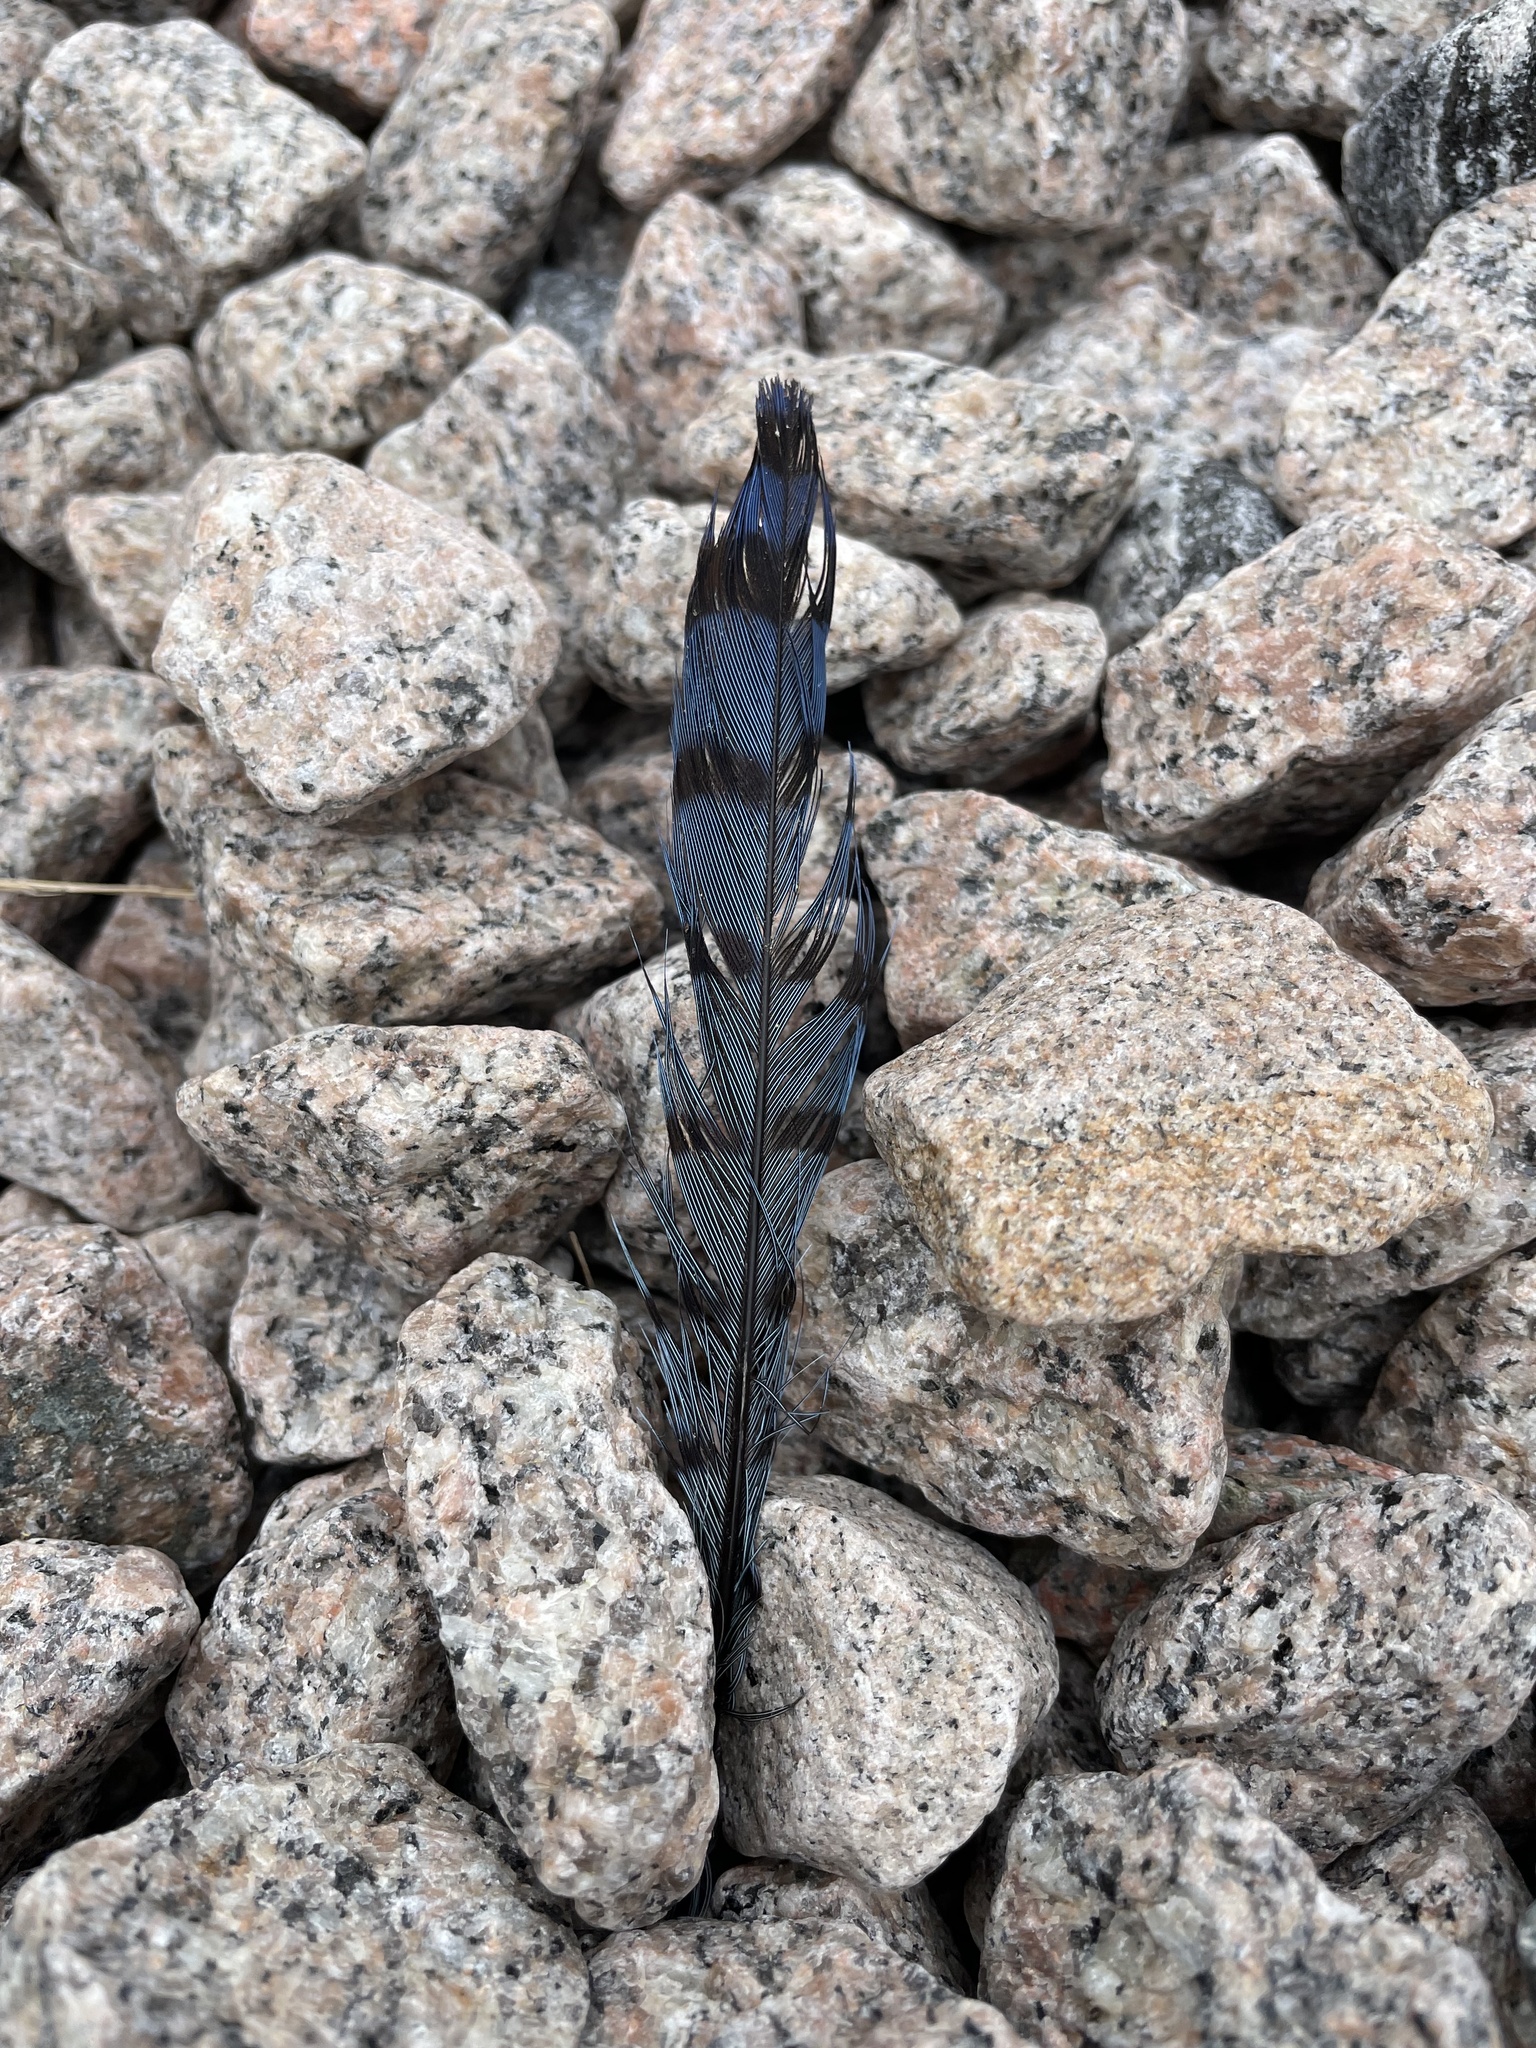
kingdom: Animalia
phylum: Chordata
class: Aves
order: Passeriformes
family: Corvidae
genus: Cyanocitta
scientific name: Cyanocitta cristata
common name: Blue jay
